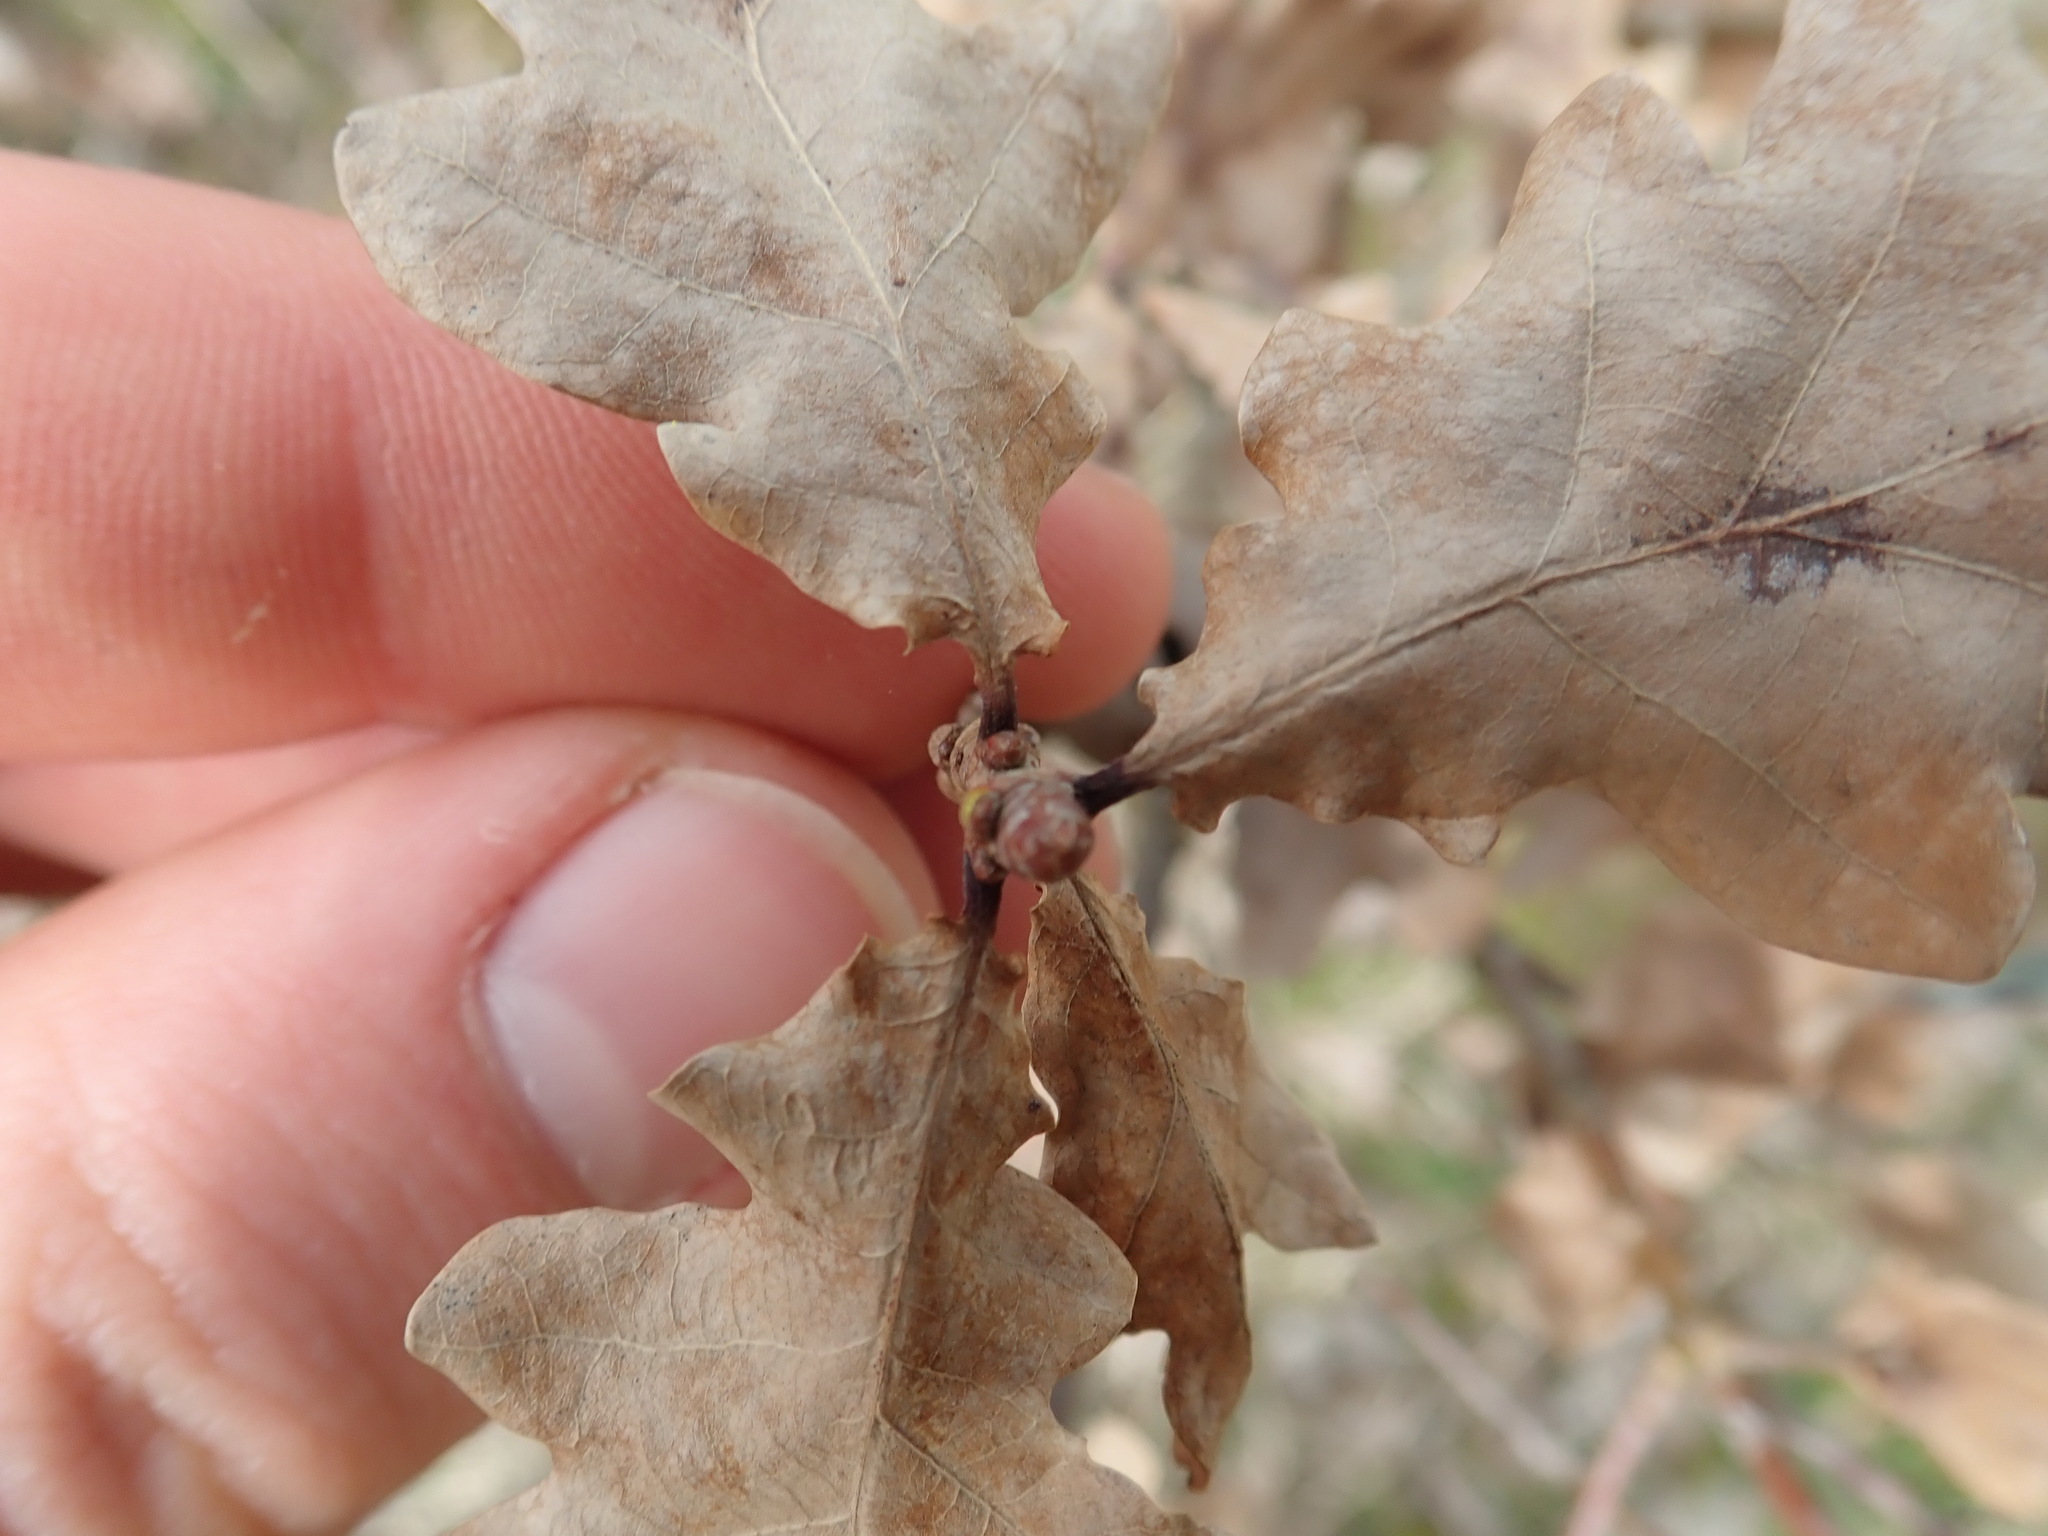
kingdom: Plantae
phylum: Tracheophyta
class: Magnoliopsida
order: Fagales
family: Fagaceae
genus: Quercus
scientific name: Quercus robur
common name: Pedunculate oak
